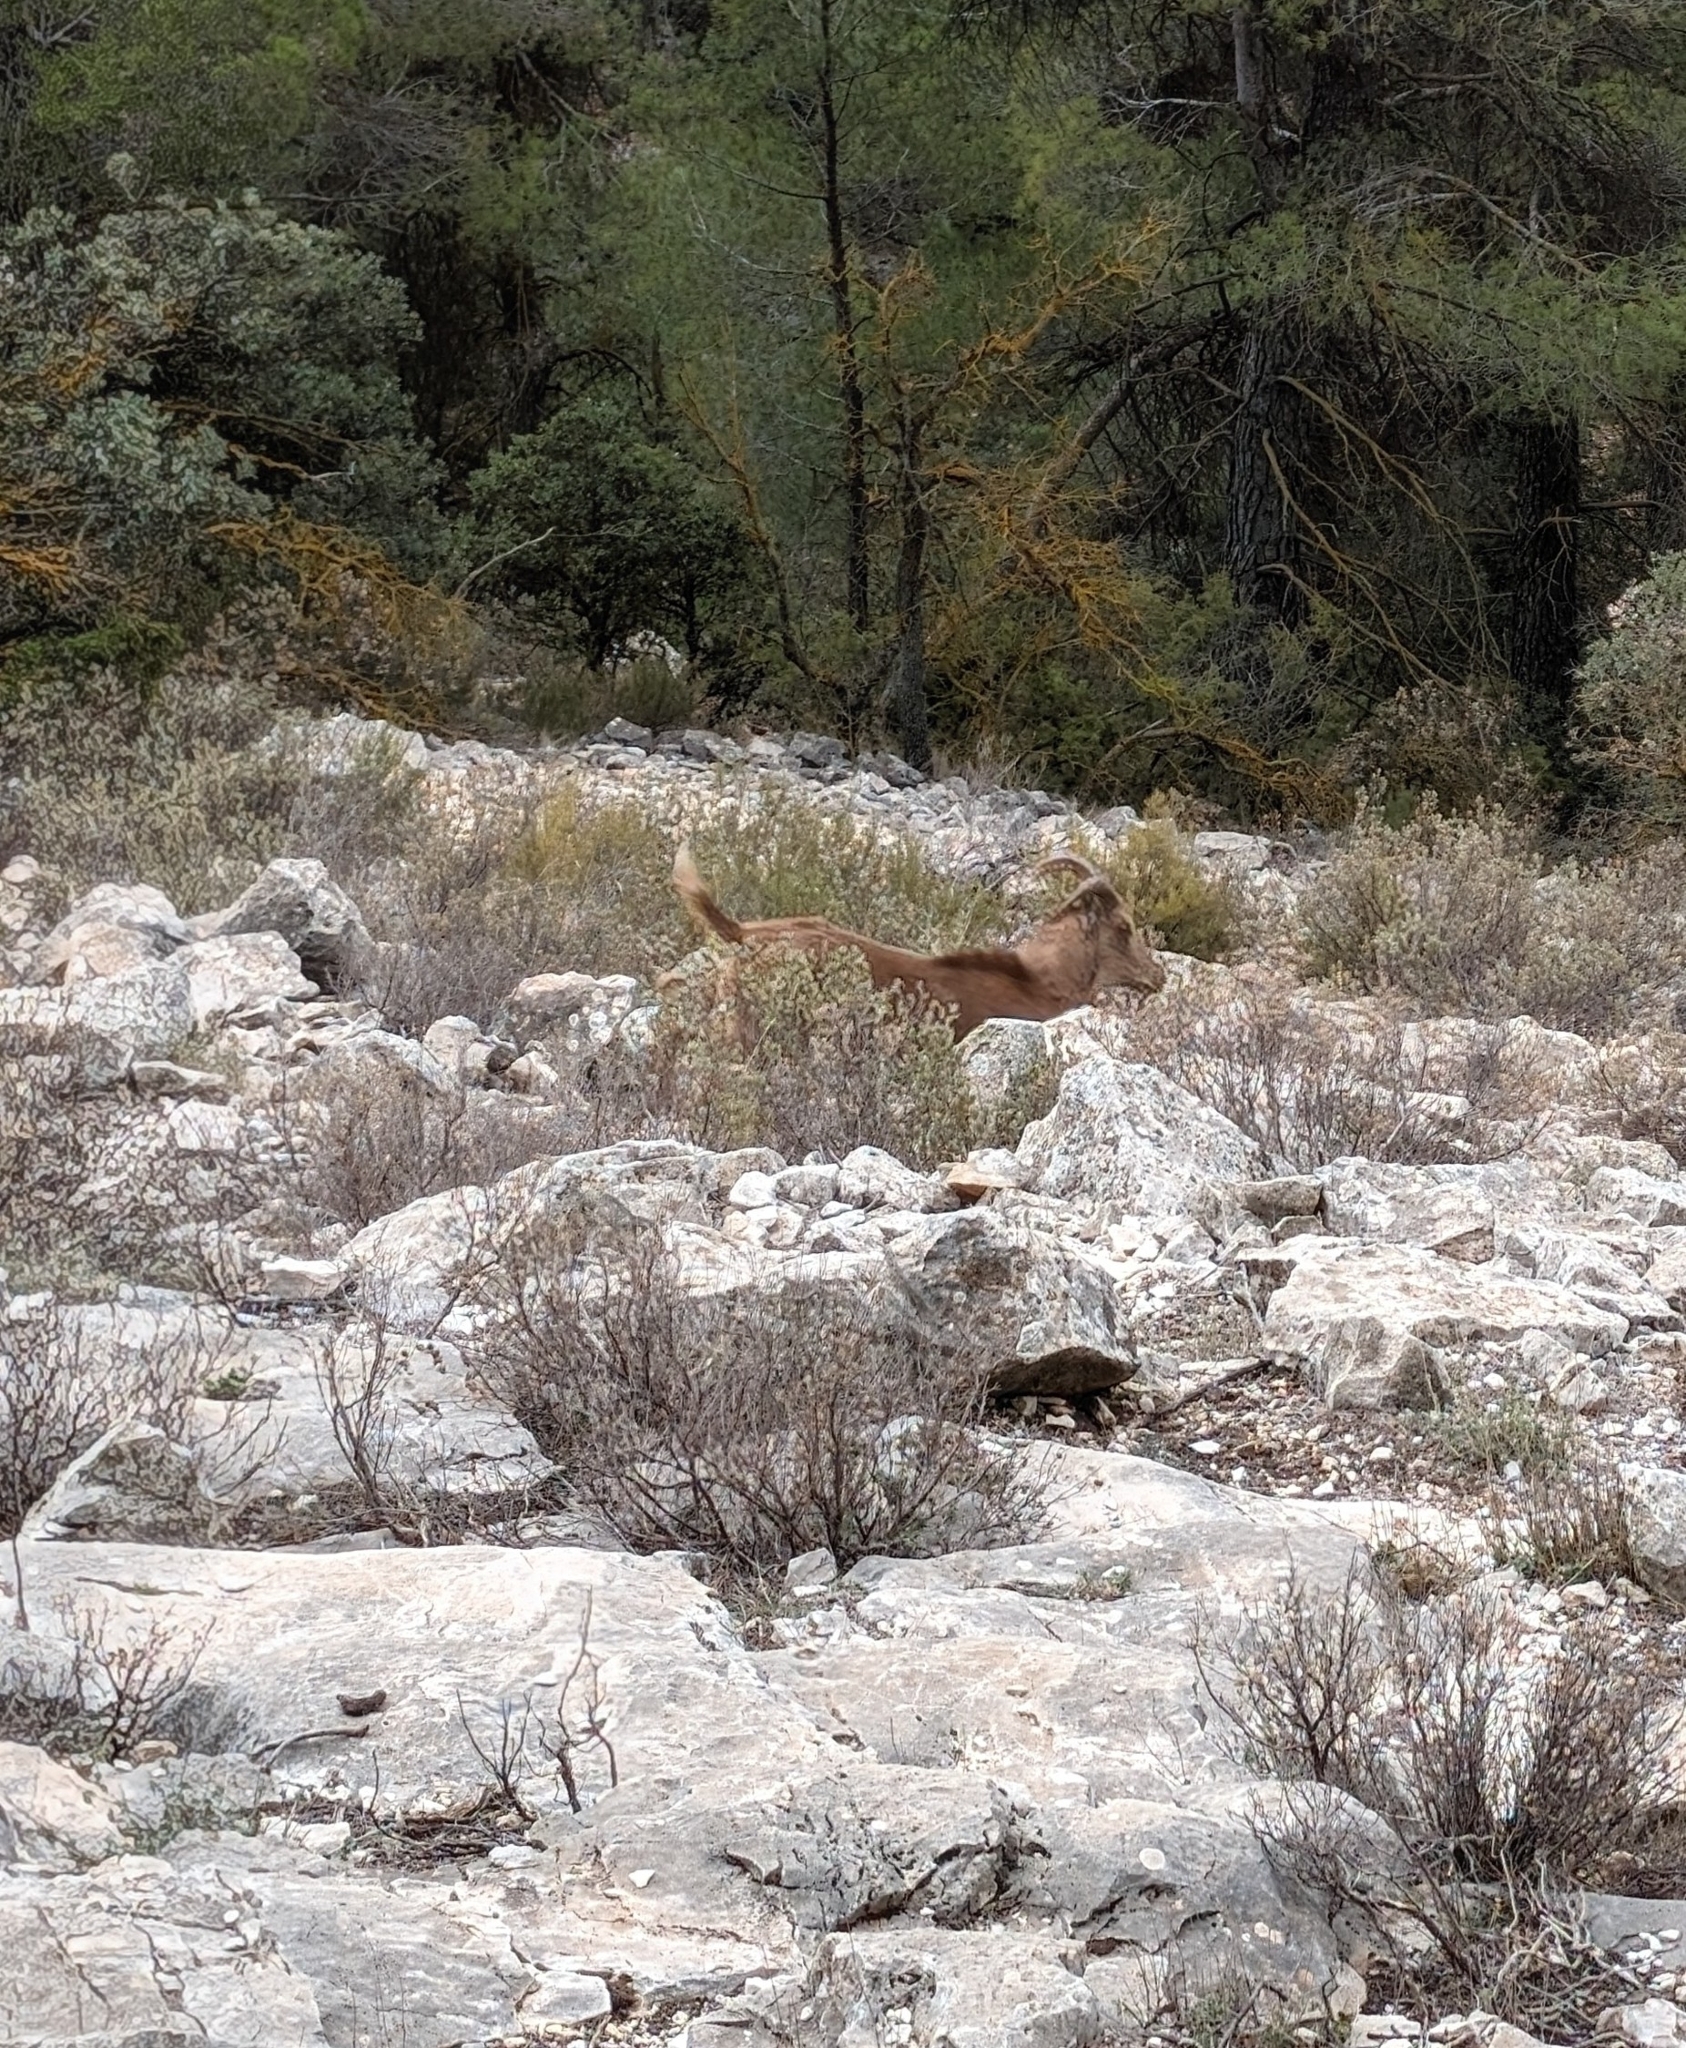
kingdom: Animalia
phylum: Chordata
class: Mammalia
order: Artiodactyla
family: Bovidae
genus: Ammotragus
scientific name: Ammotragus lervia
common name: Barbary sheep
